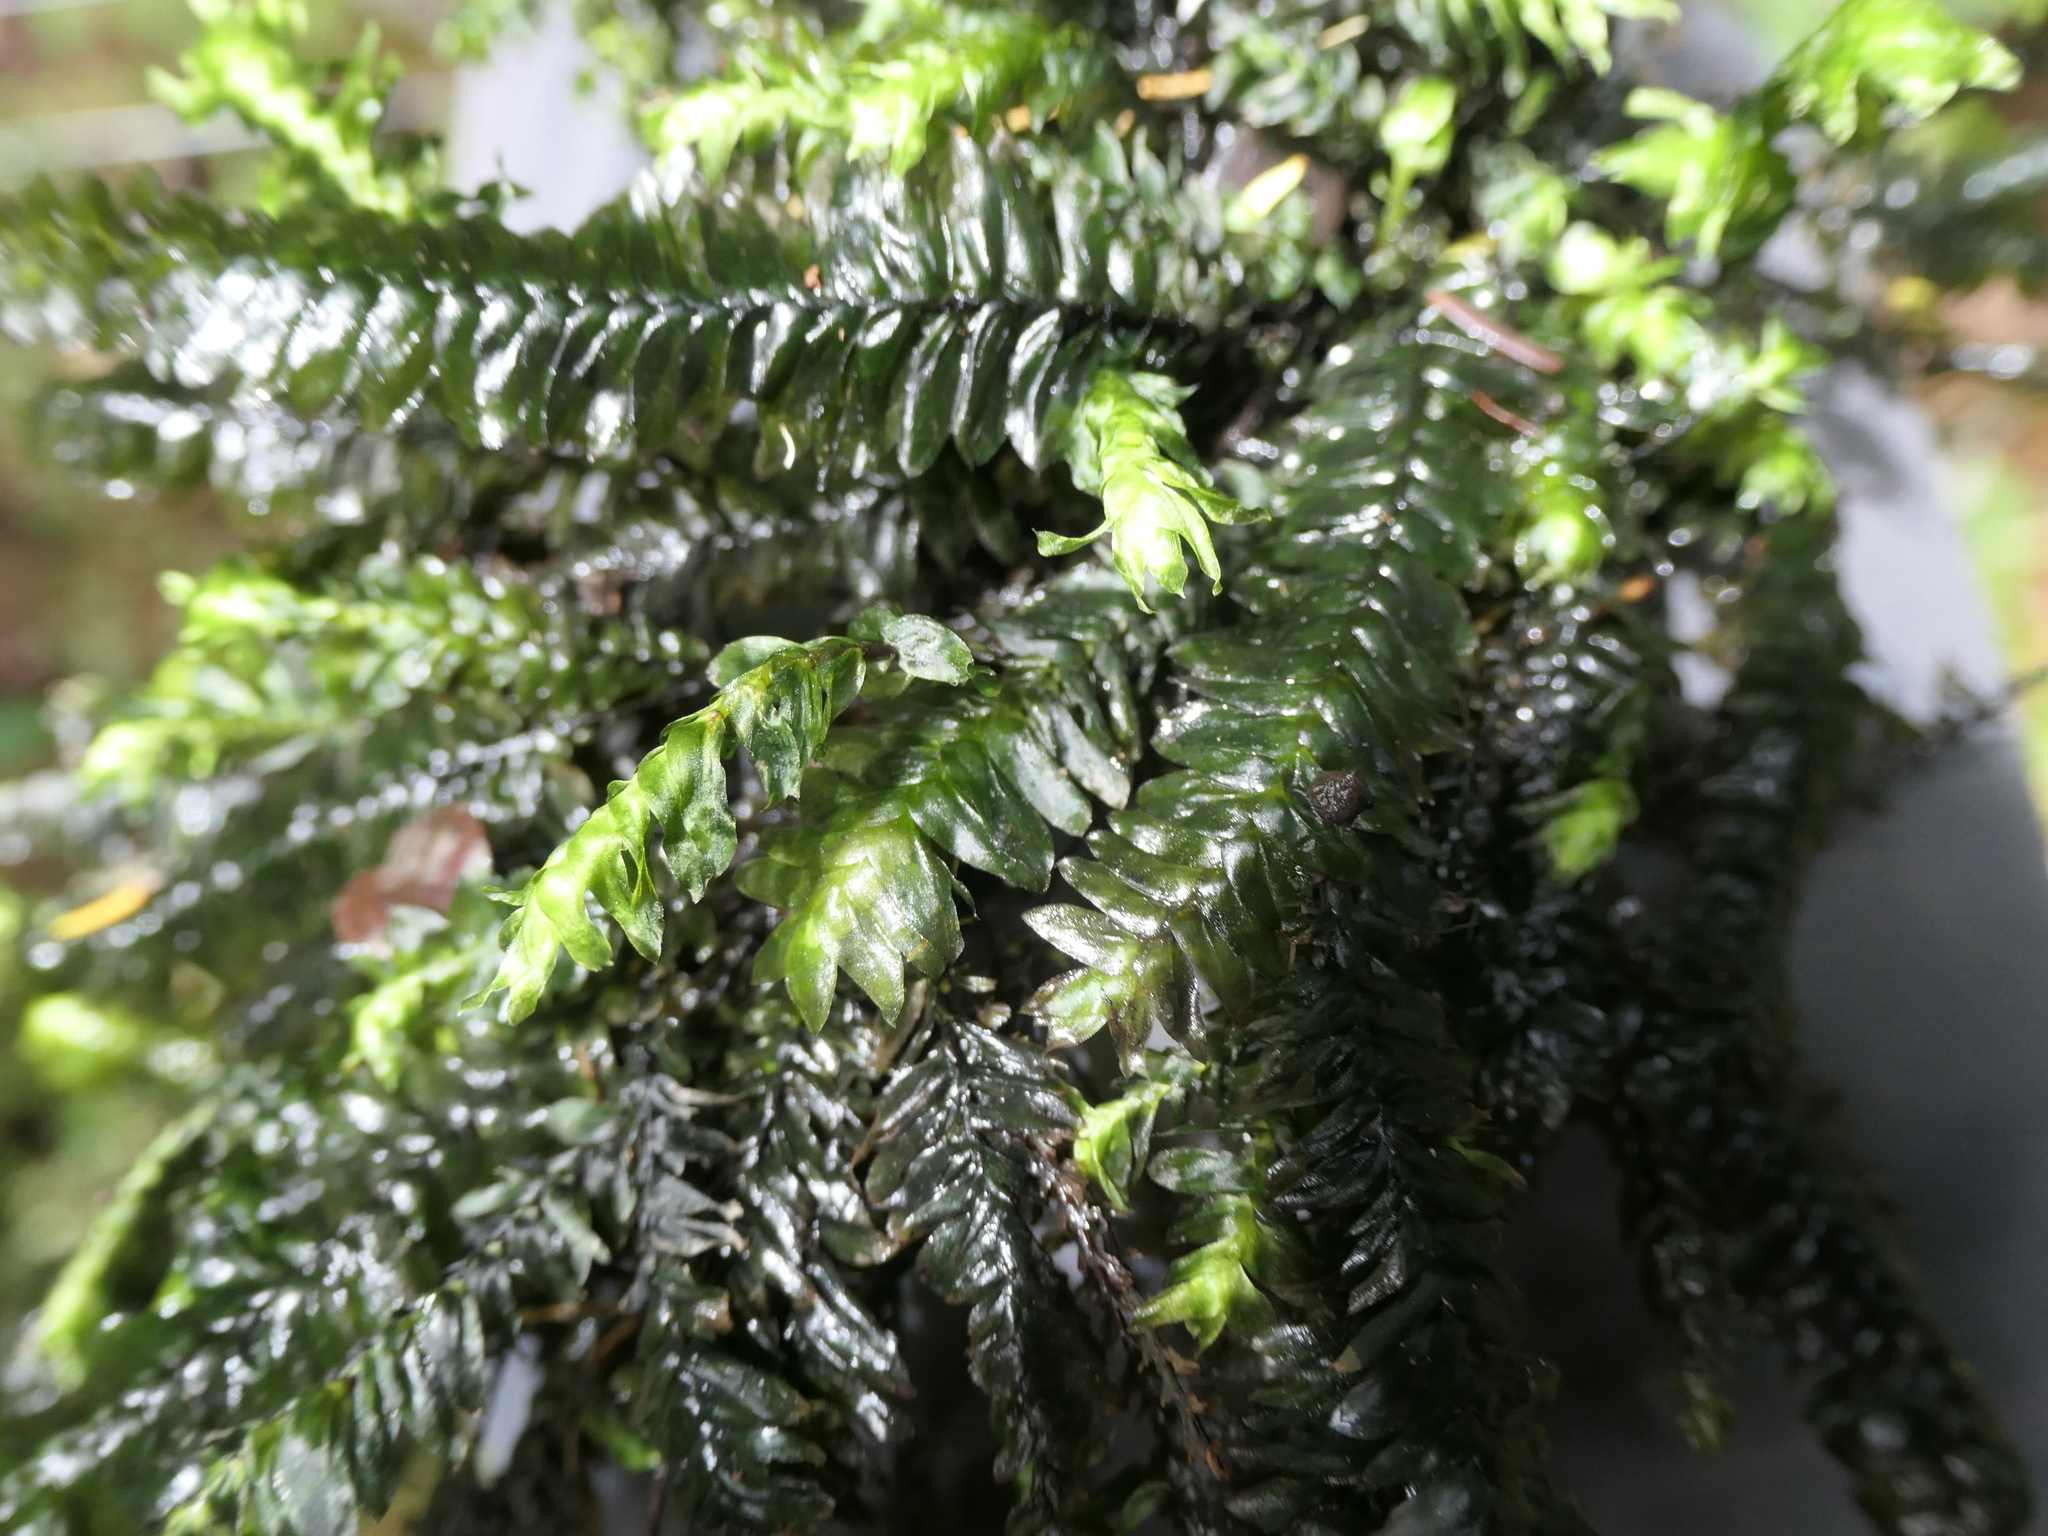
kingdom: Plantae
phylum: Bryophyta
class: Bryopsida
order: Hypopterygiales
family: Hypopterygiaceae
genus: Cyathophorum
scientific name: Cyathophorum bulbosum
